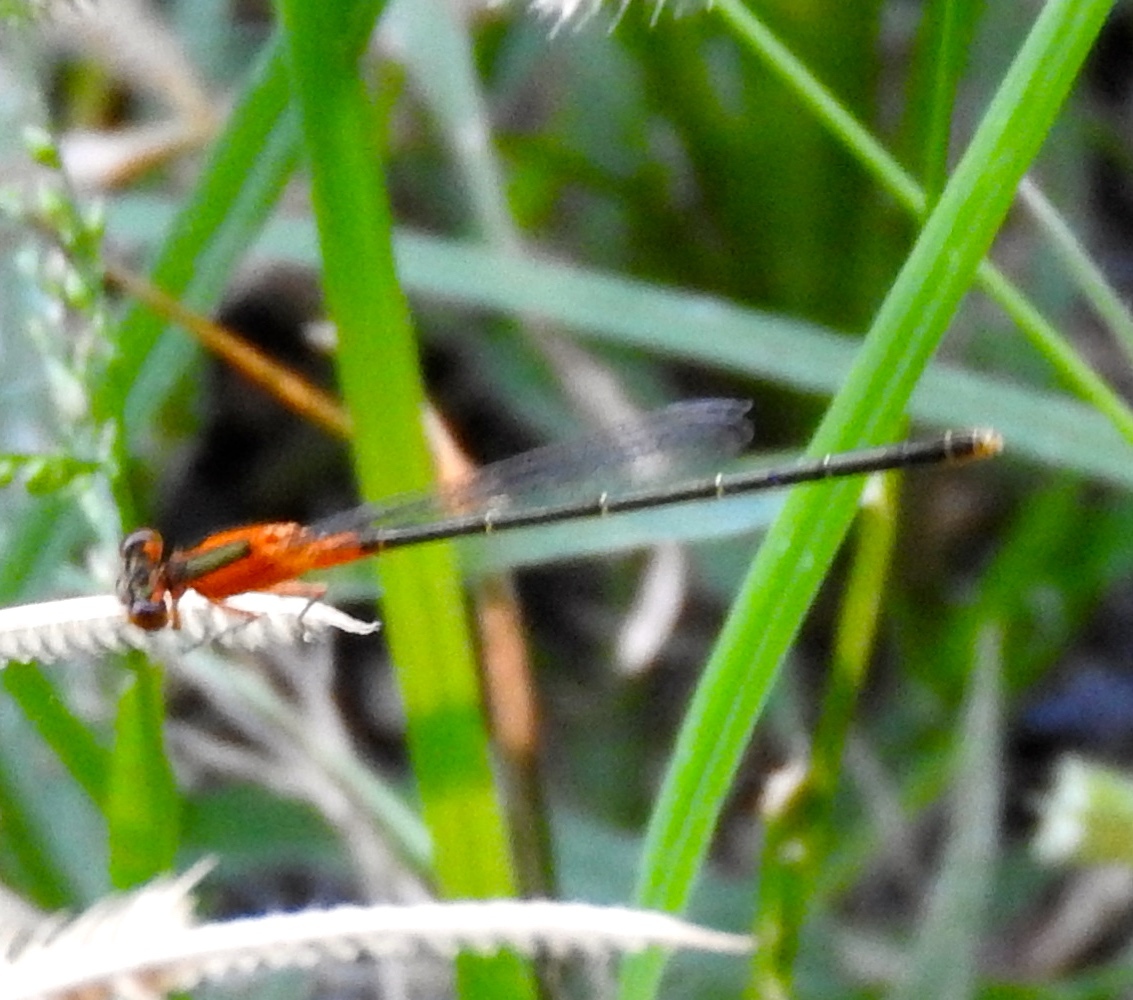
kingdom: Animalia
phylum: Arthropoda
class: Insecta
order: Odonata
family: Coenagrionidae
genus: Ischnura
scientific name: Ischnura ramburii
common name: Rambur's forktail
